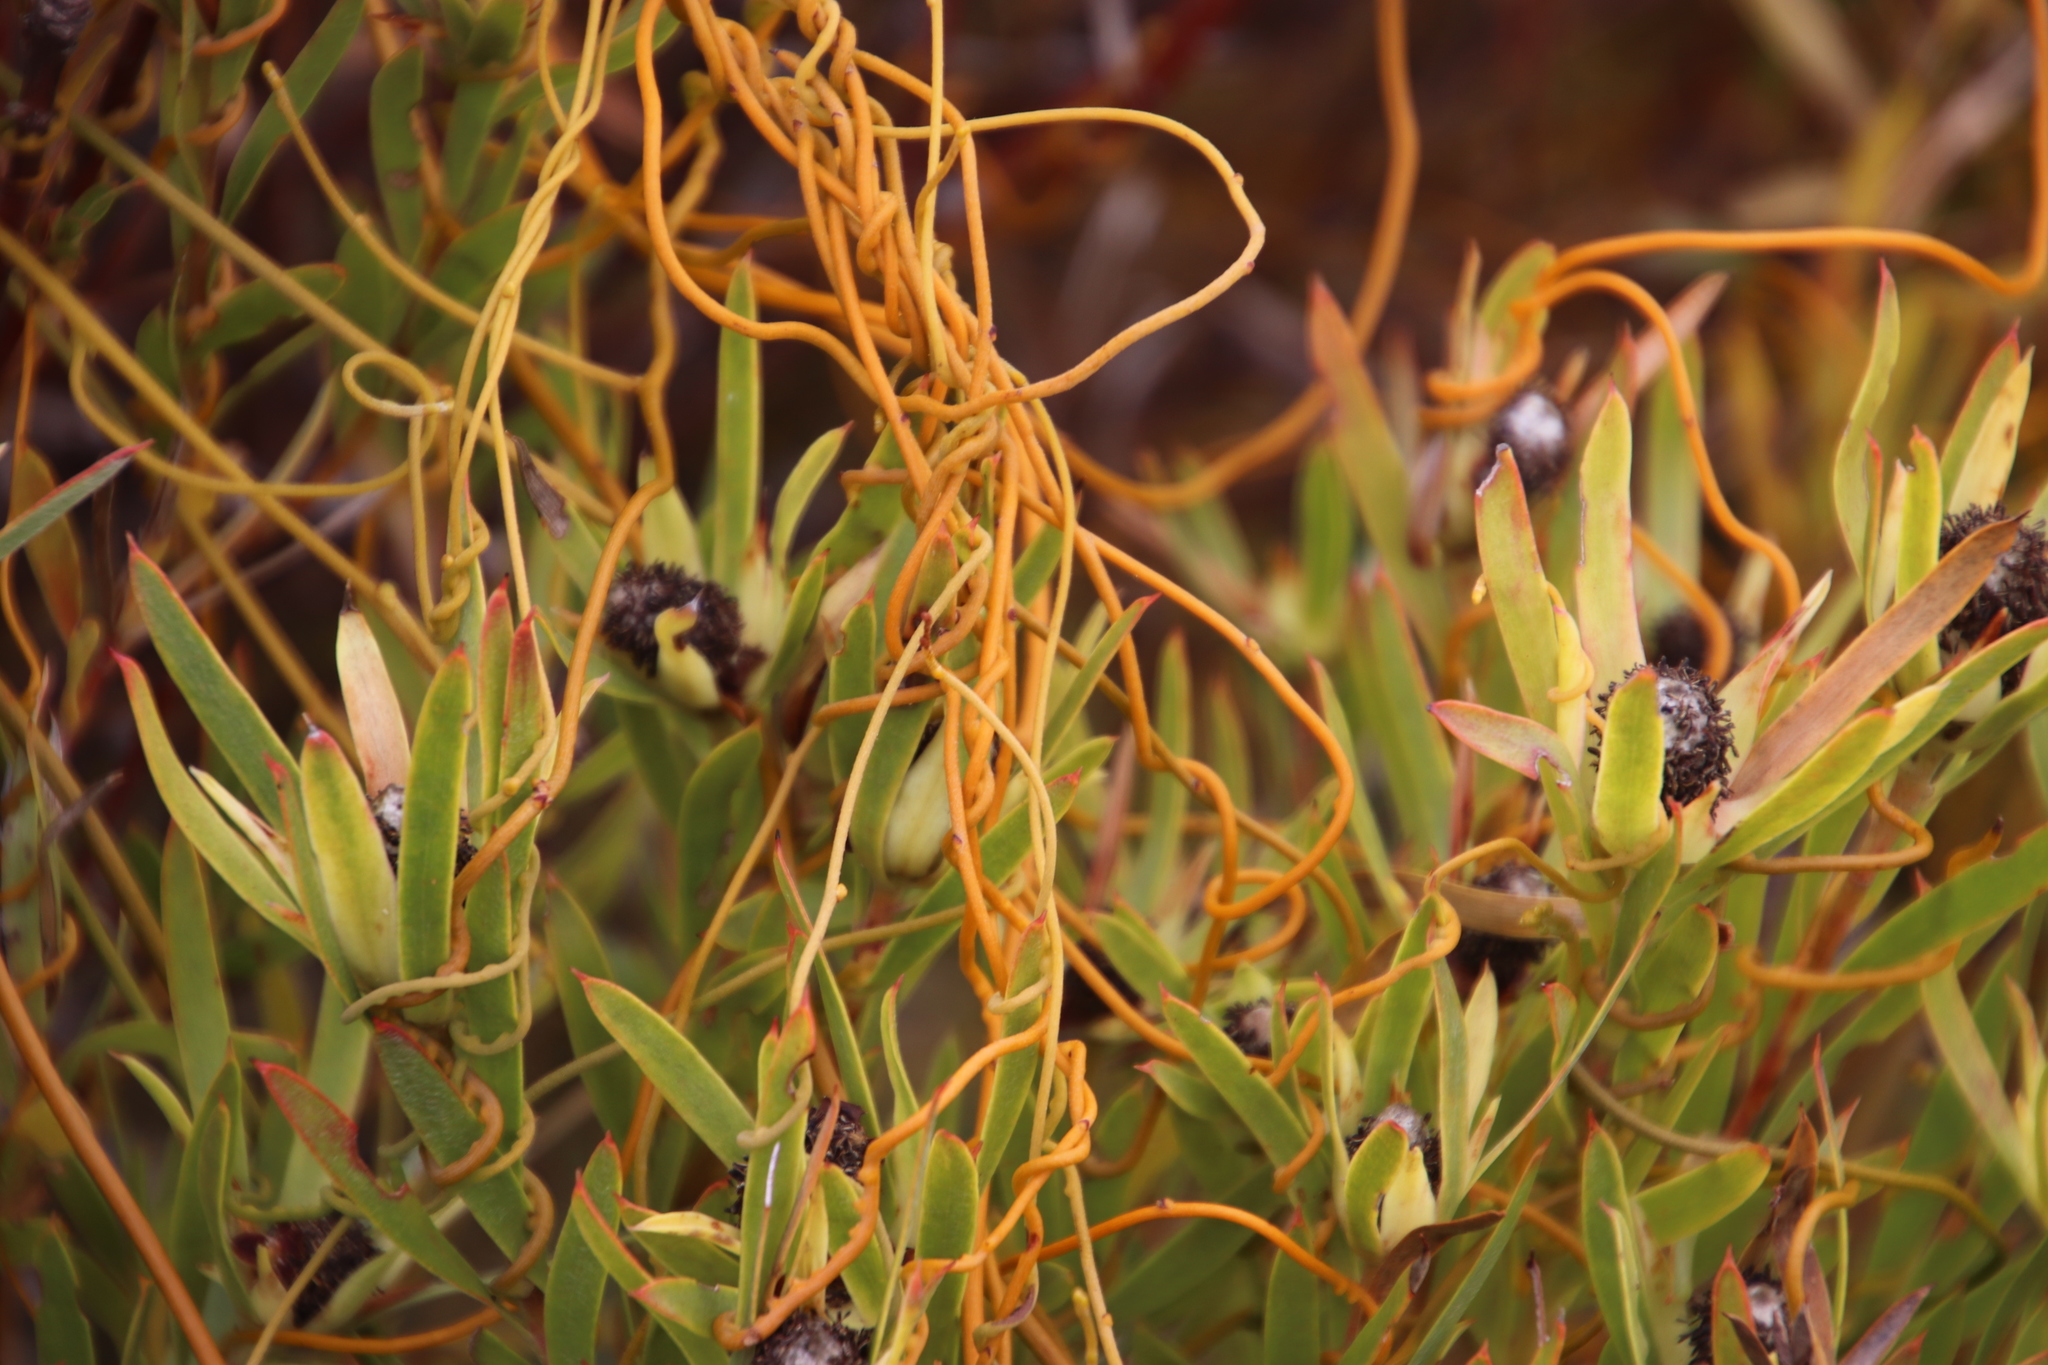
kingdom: Plantae
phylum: Tracheophyta
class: Magnoliopsida
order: Proteales
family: Proteaceae
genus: Leucadendron
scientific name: Leucadendron xanthoconus
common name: Sickle-leaf conebush
